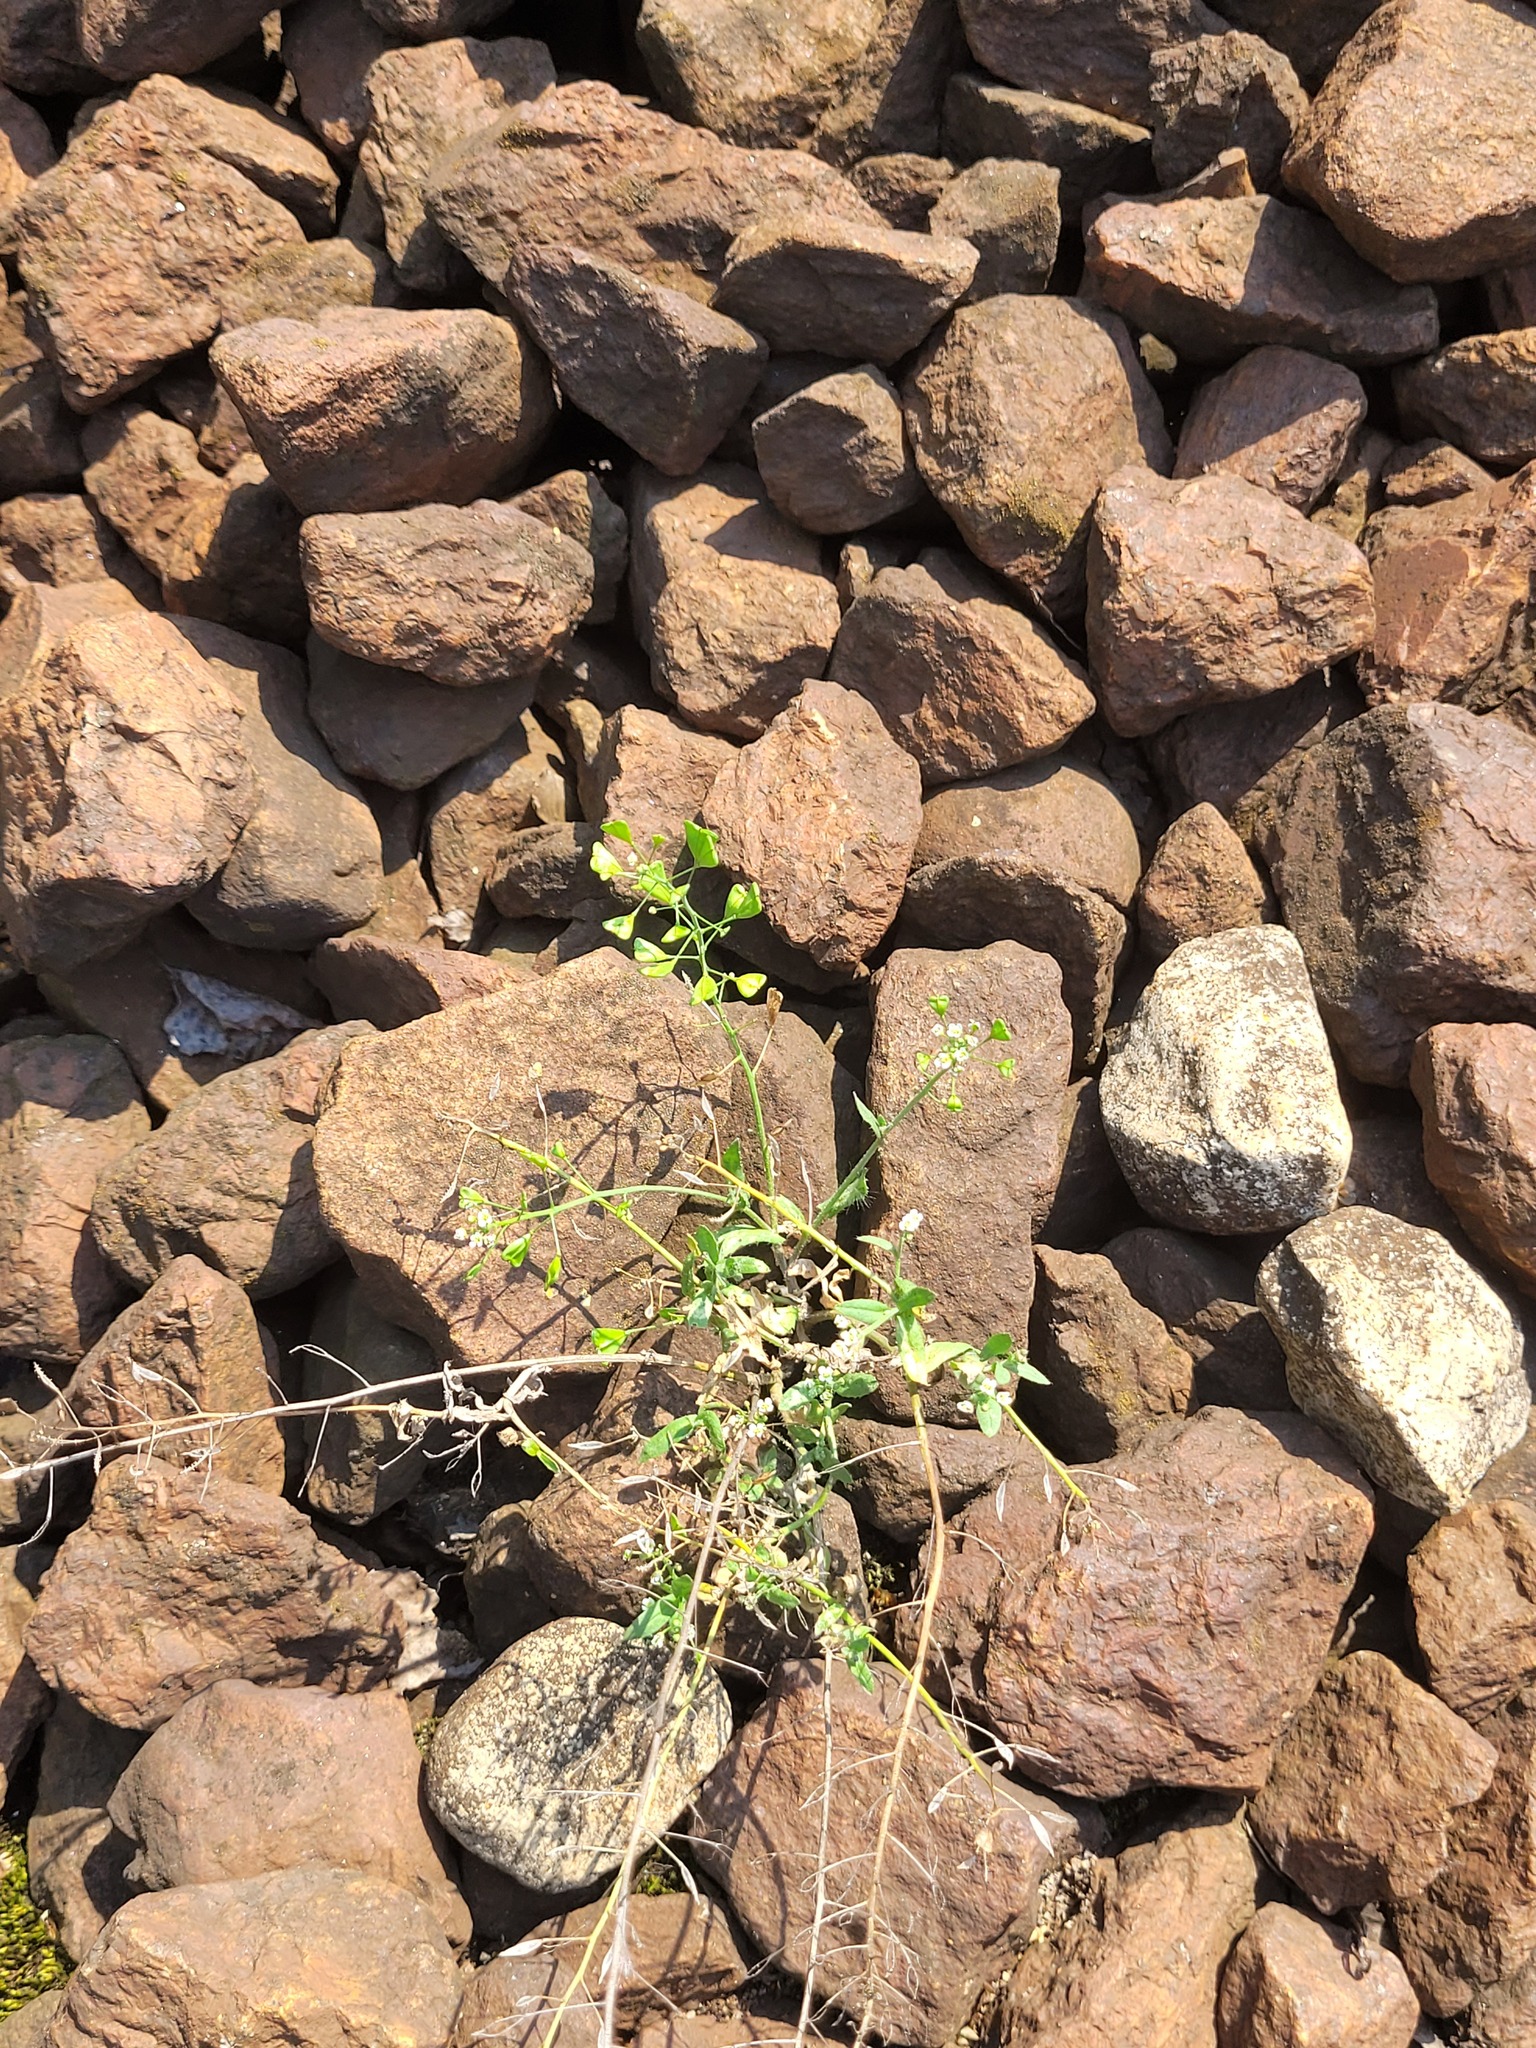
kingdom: Plantae
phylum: Tracheophyta
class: Magnoliopsida
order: Brassicales
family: Brassicaceae
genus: Capsella
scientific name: Capsella bursa-pastoris
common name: Shepherd's purse
